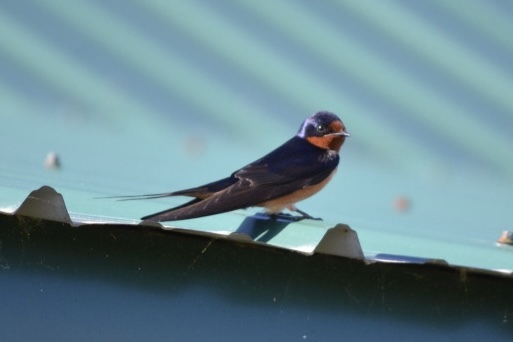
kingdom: Animalia
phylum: Chordata
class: Aves
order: Passeriformes
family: Hirundinidae
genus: Hirundo
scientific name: Hirundo rustica
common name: Barn swallow
